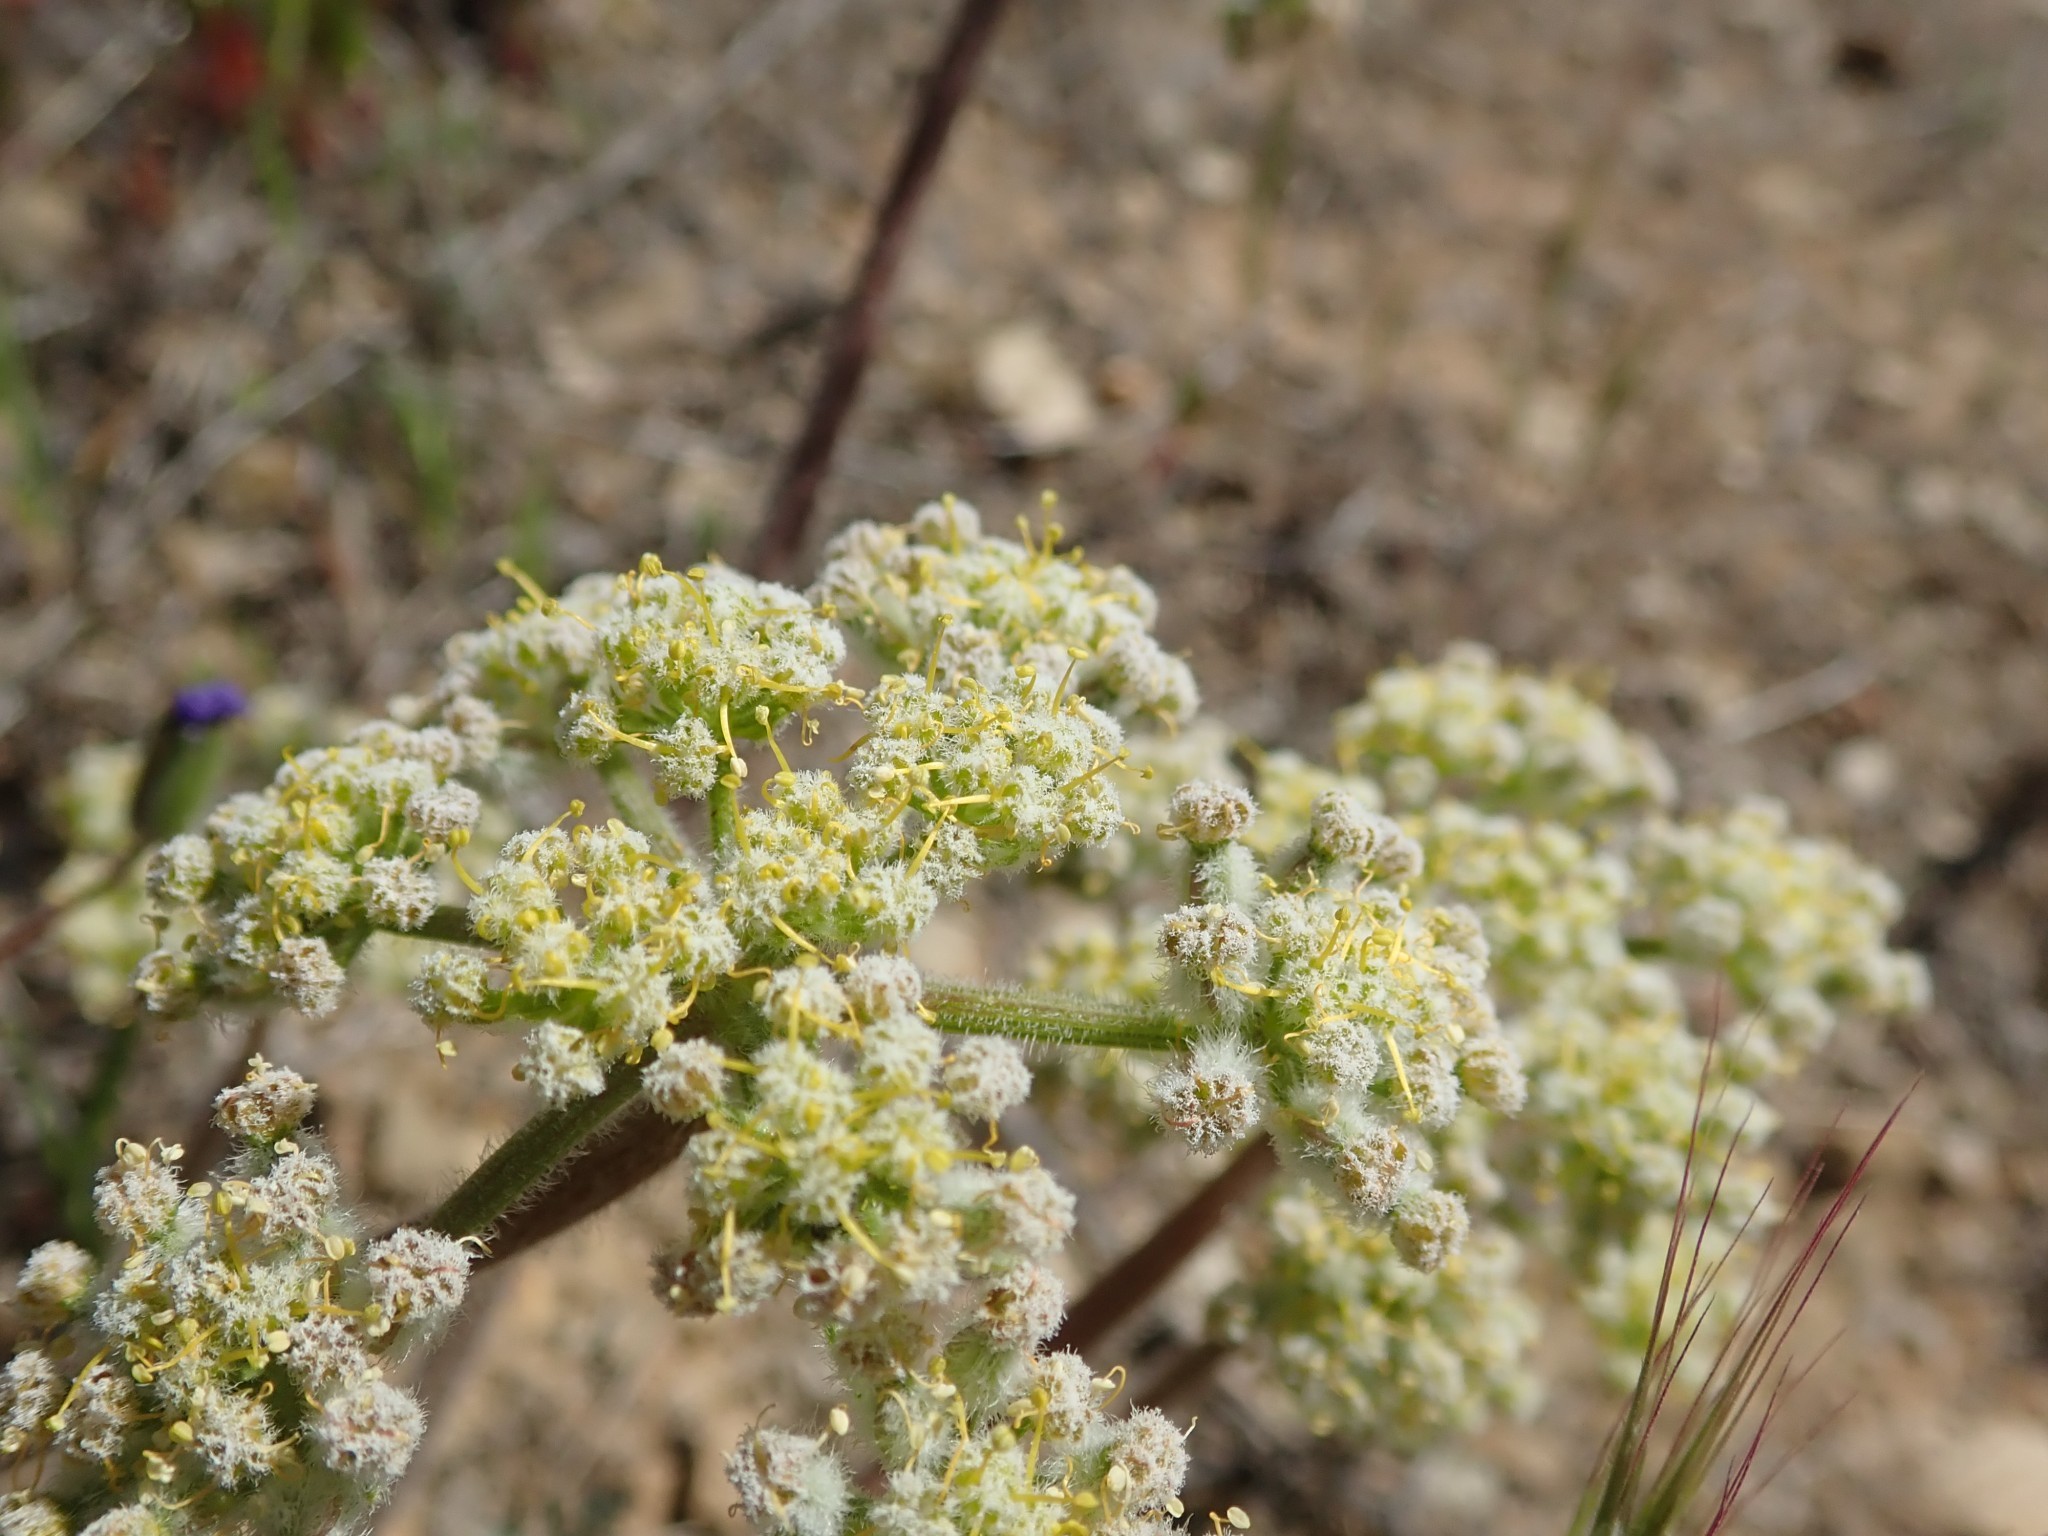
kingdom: Plantae
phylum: Tracheophyta
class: Magnoliopsida
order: Apiales
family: Apiaceae
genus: Lomatium
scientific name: Lomatium dasycarpum
